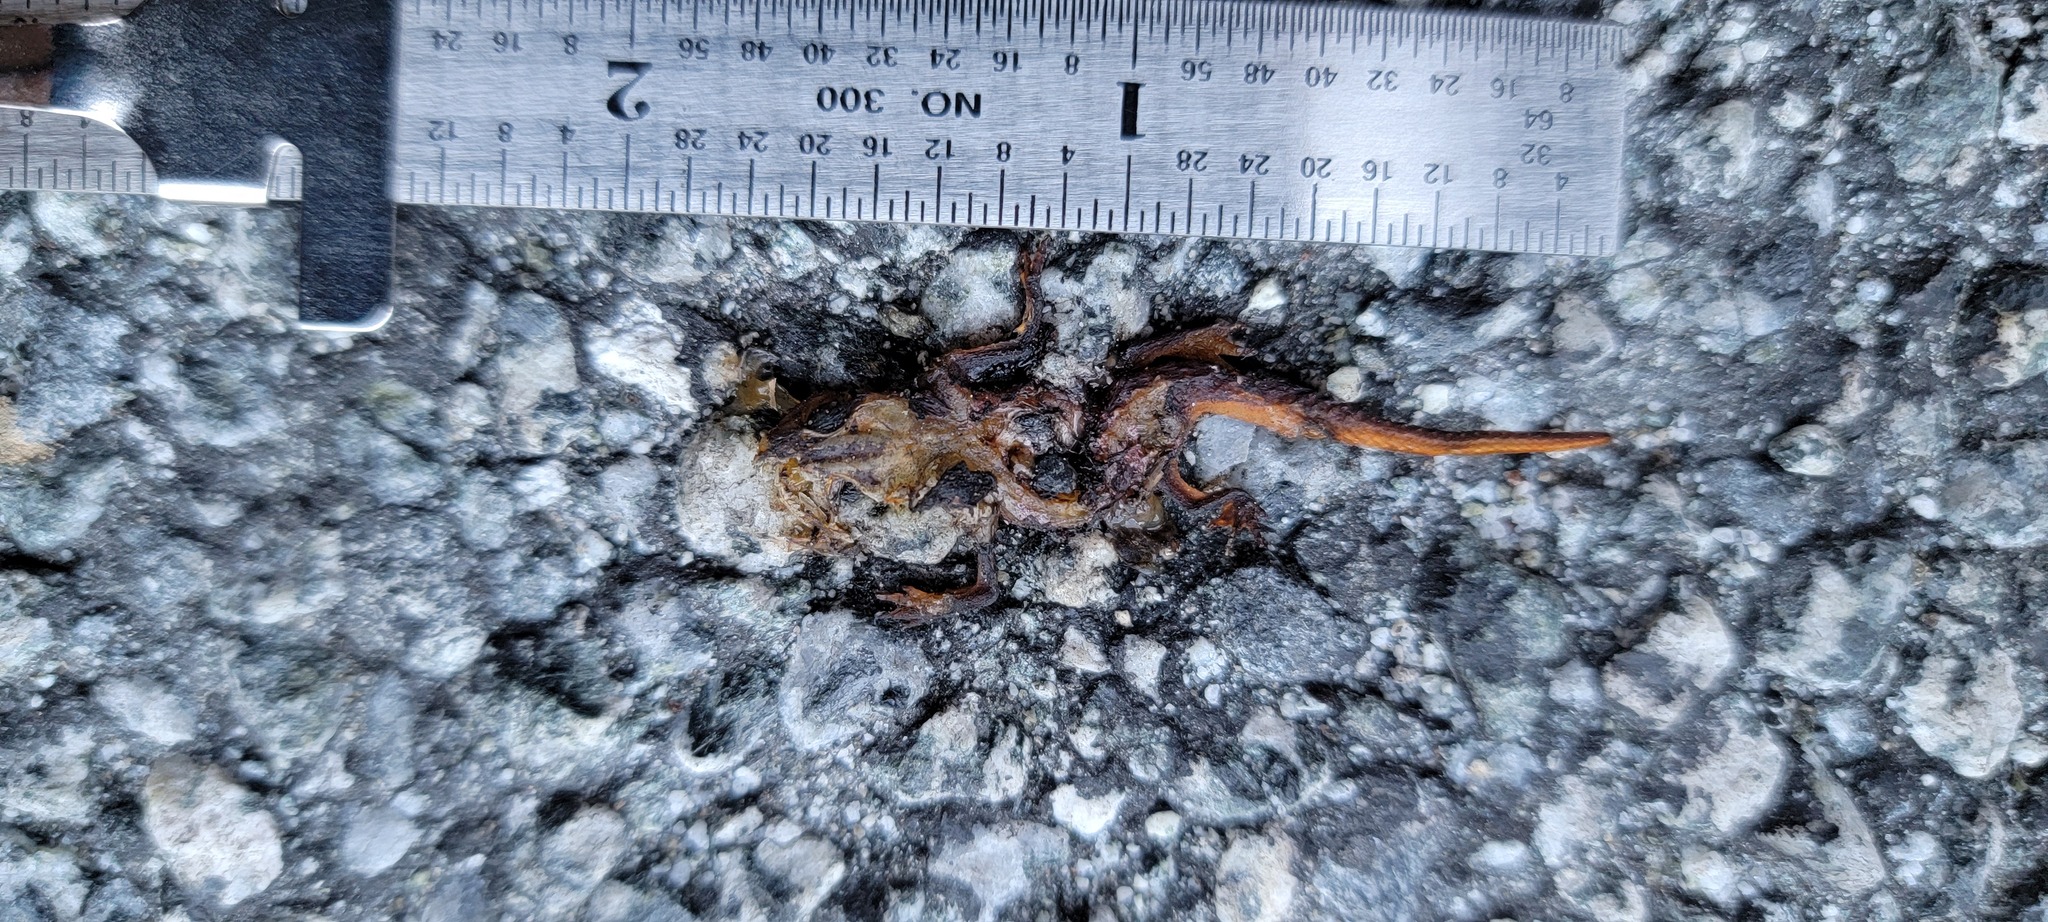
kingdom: Animalia
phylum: Chordata
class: Amphibia
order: Caudata
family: Salamandridae
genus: Taricha
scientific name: Taricha
